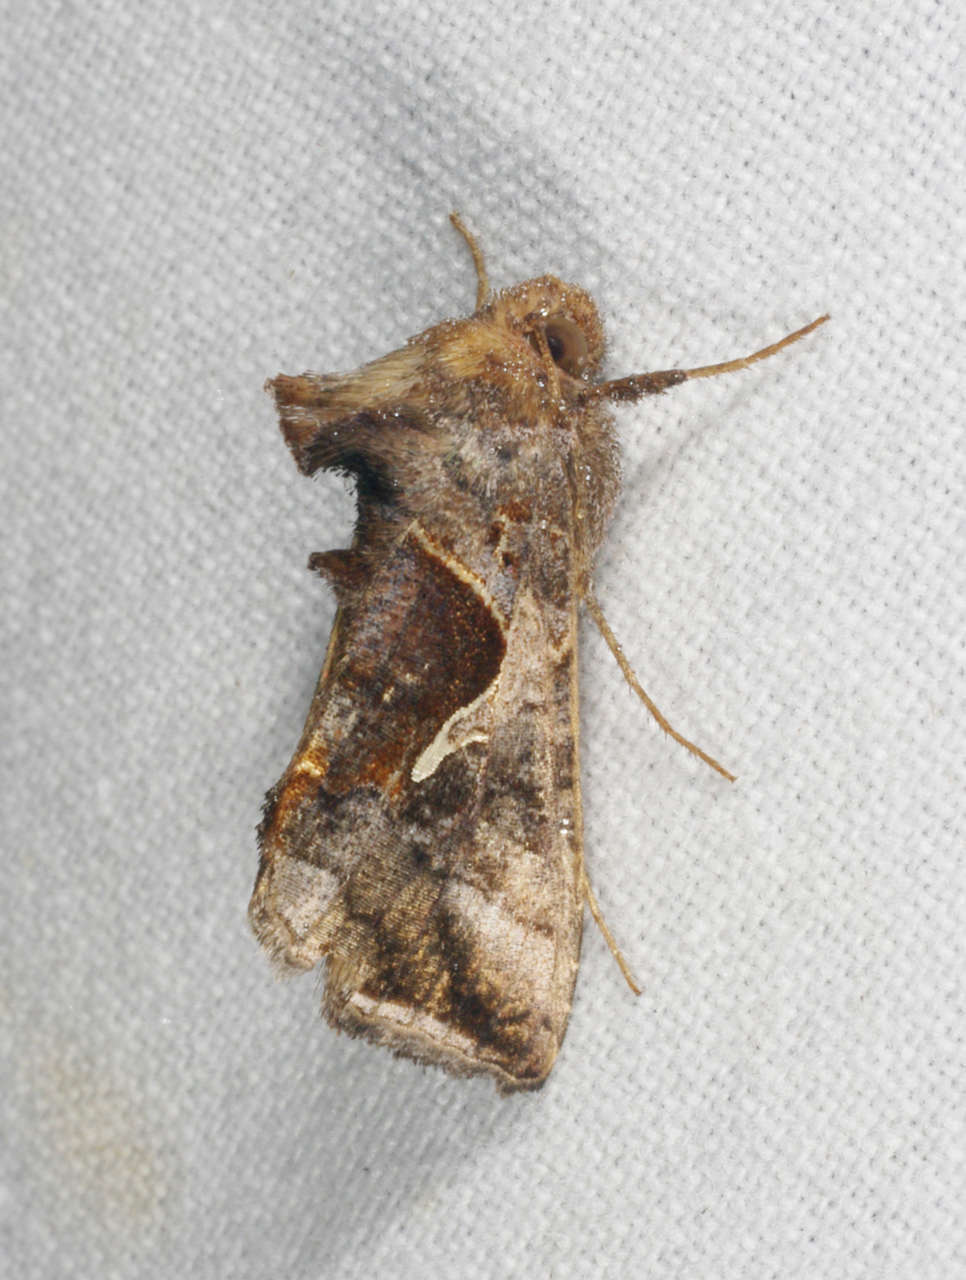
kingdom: Animalia
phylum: Arthropoda
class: Insecta
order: Lepidoptera
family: Noctuidae
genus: Chrysodeixis
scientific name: Chrysodeixis subsidens
